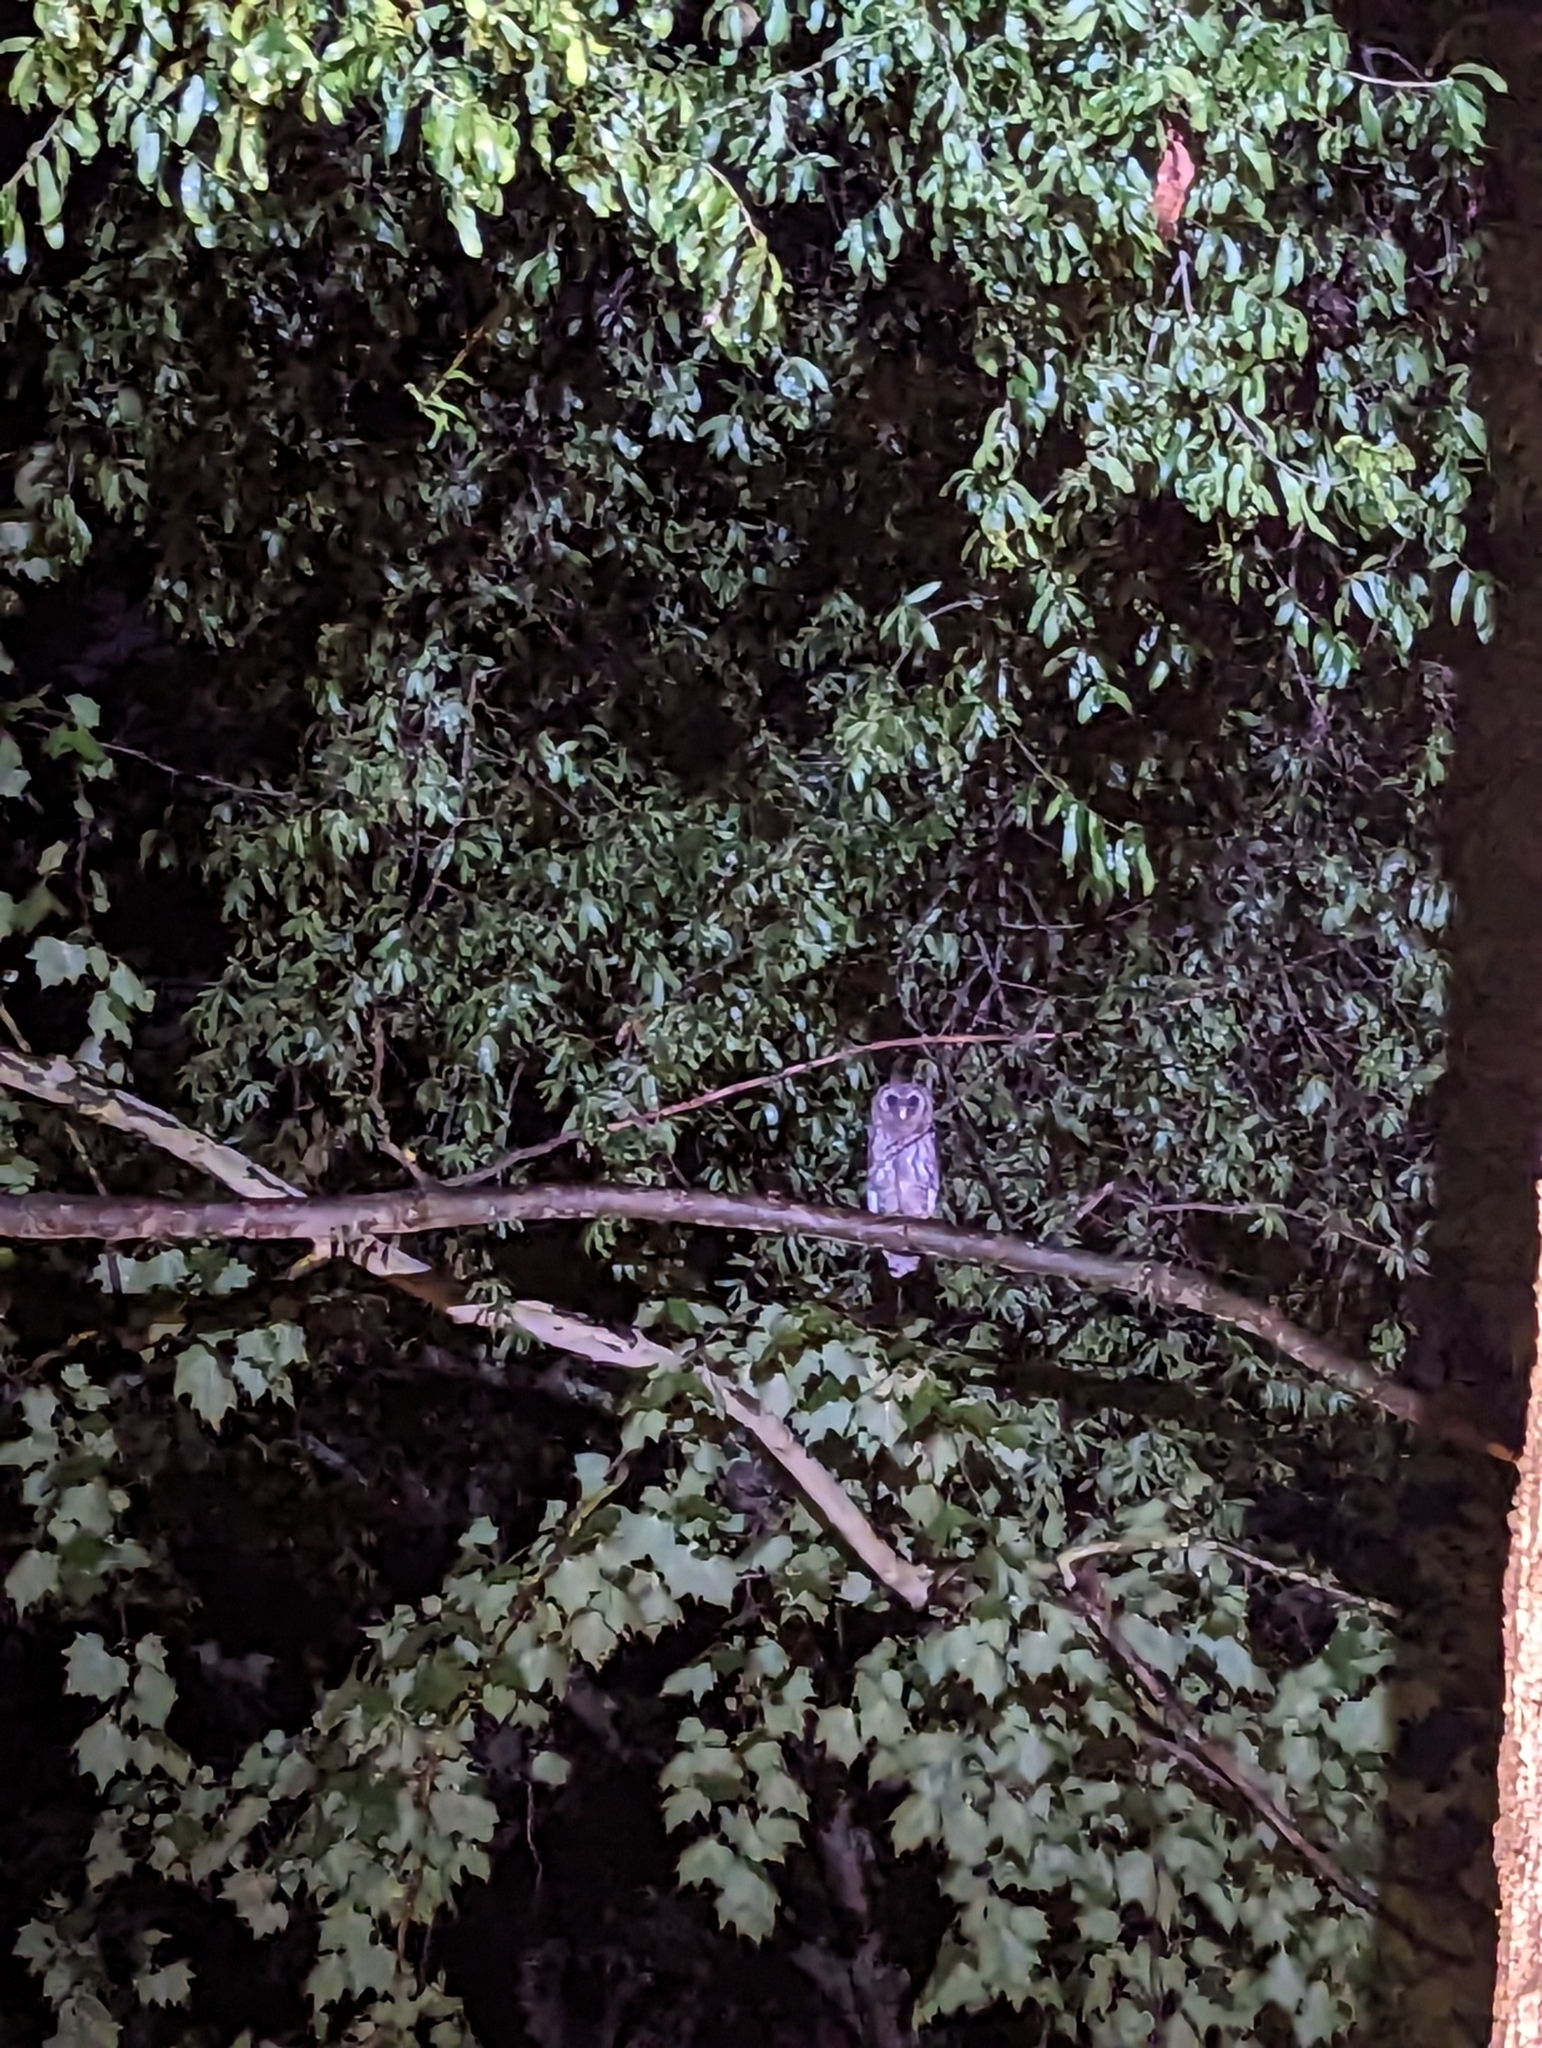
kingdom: Animalia
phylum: Chordata
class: Aves
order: Strigiformes
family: Strigidae
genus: Strix
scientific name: Strix varia
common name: Barred owl
